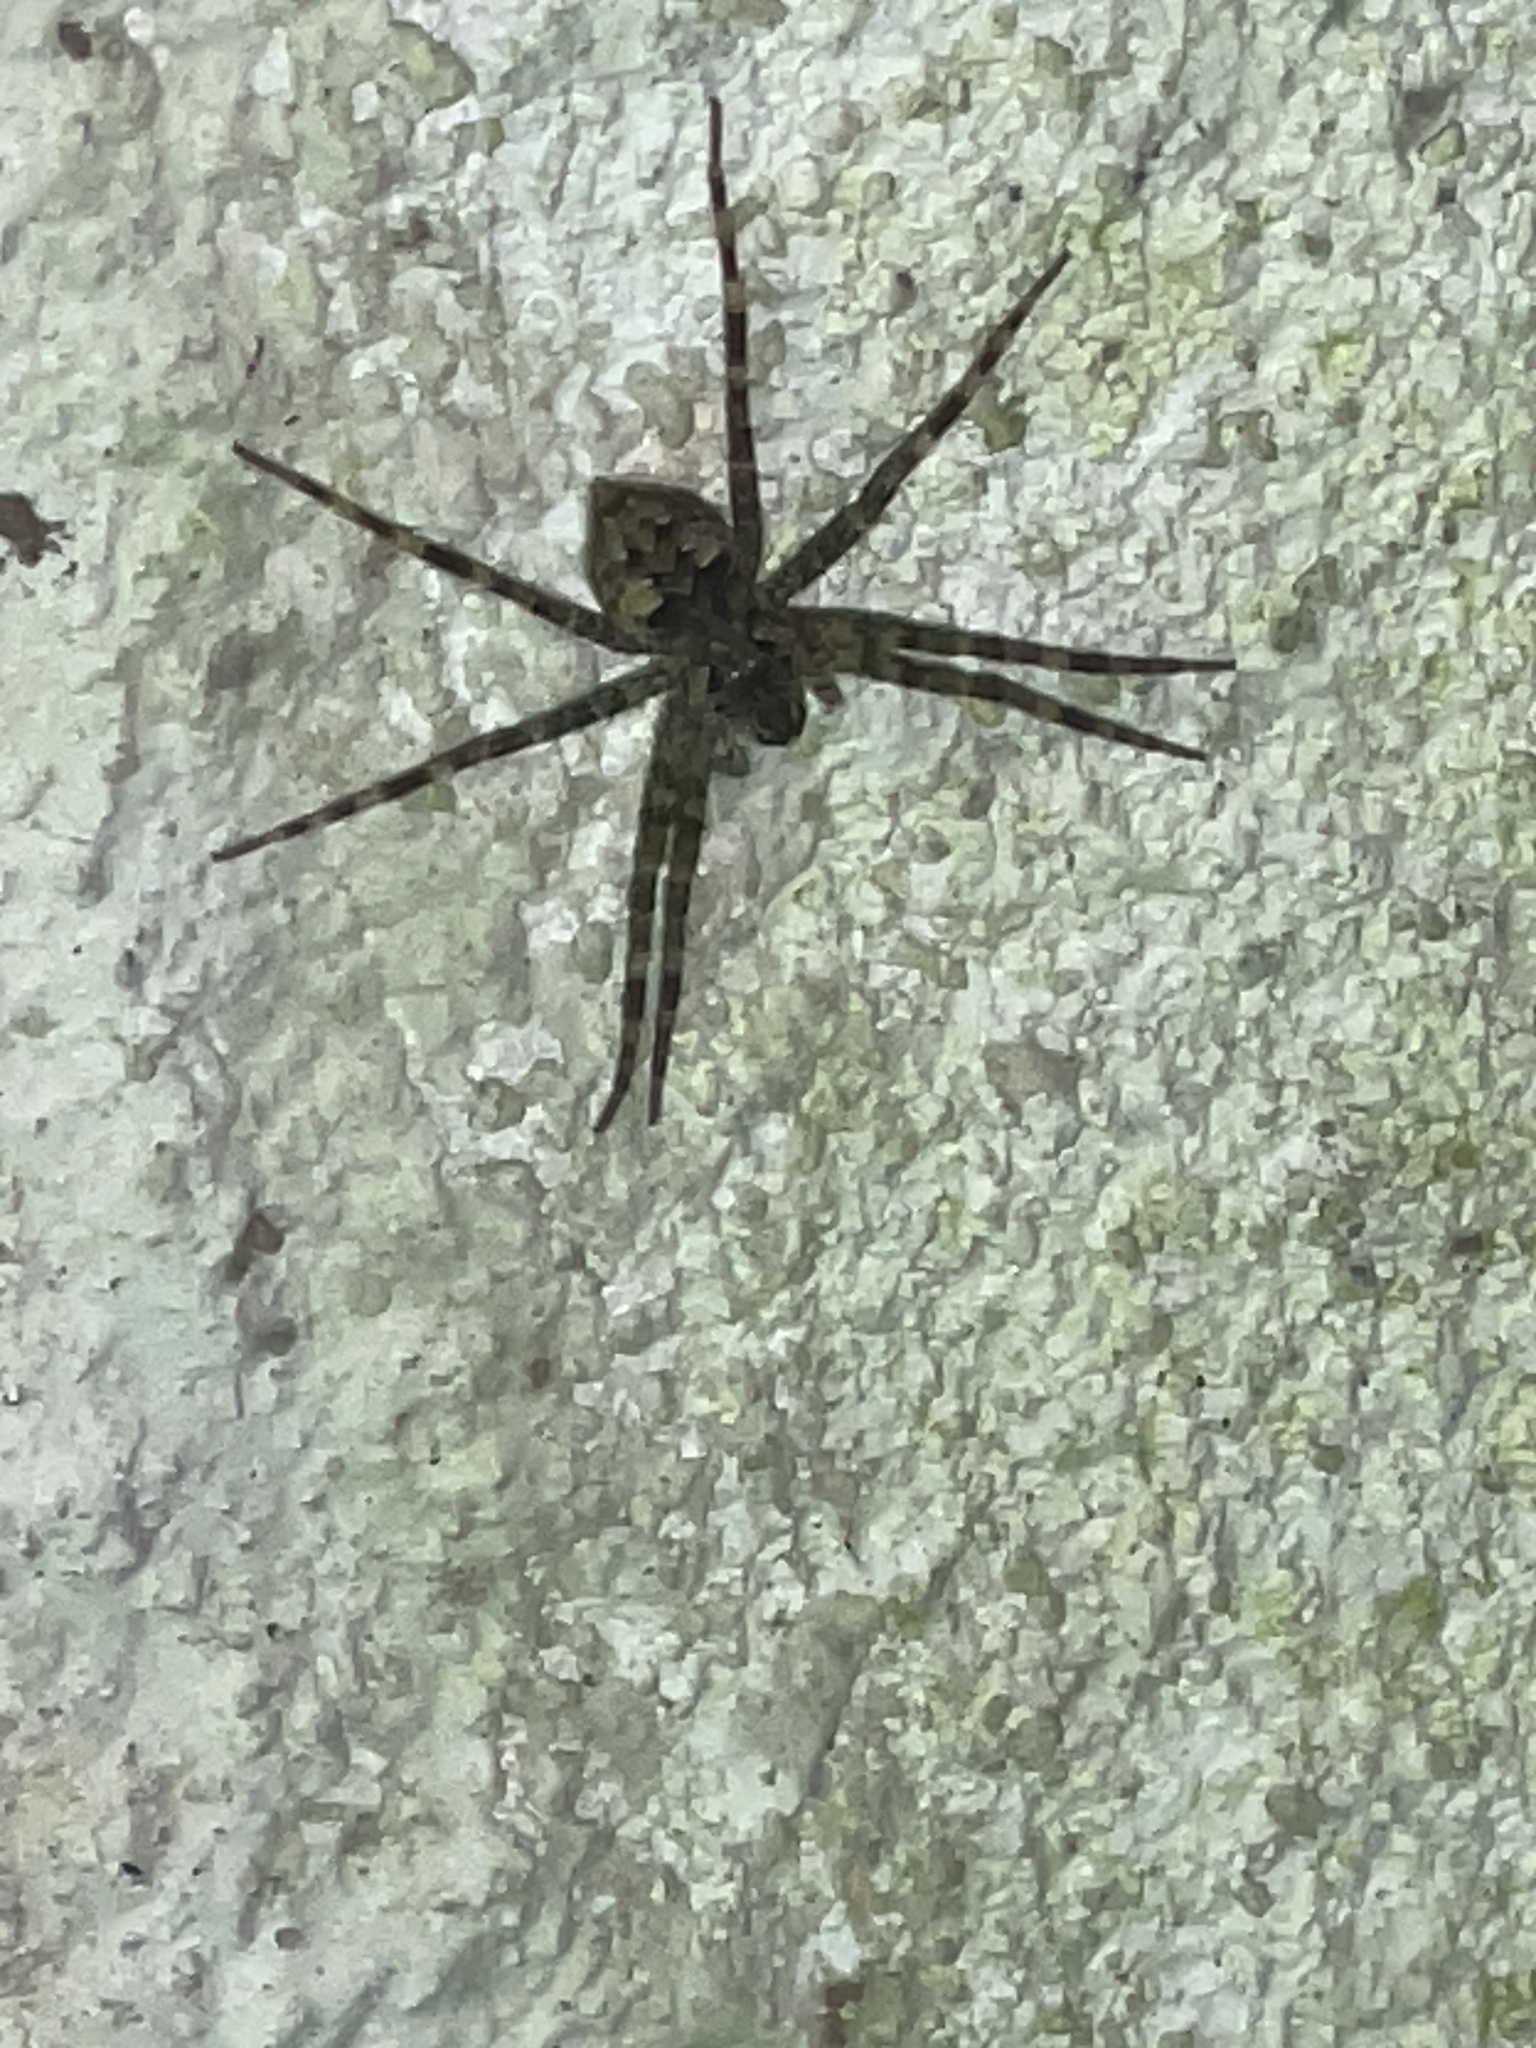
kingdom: Animalia
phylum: Arthropoda
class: Arachnida
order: Araneae
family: Pisauridae
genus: Dolomedes
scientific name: Dolomedes tenebrosus
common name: Dark fishing spider
